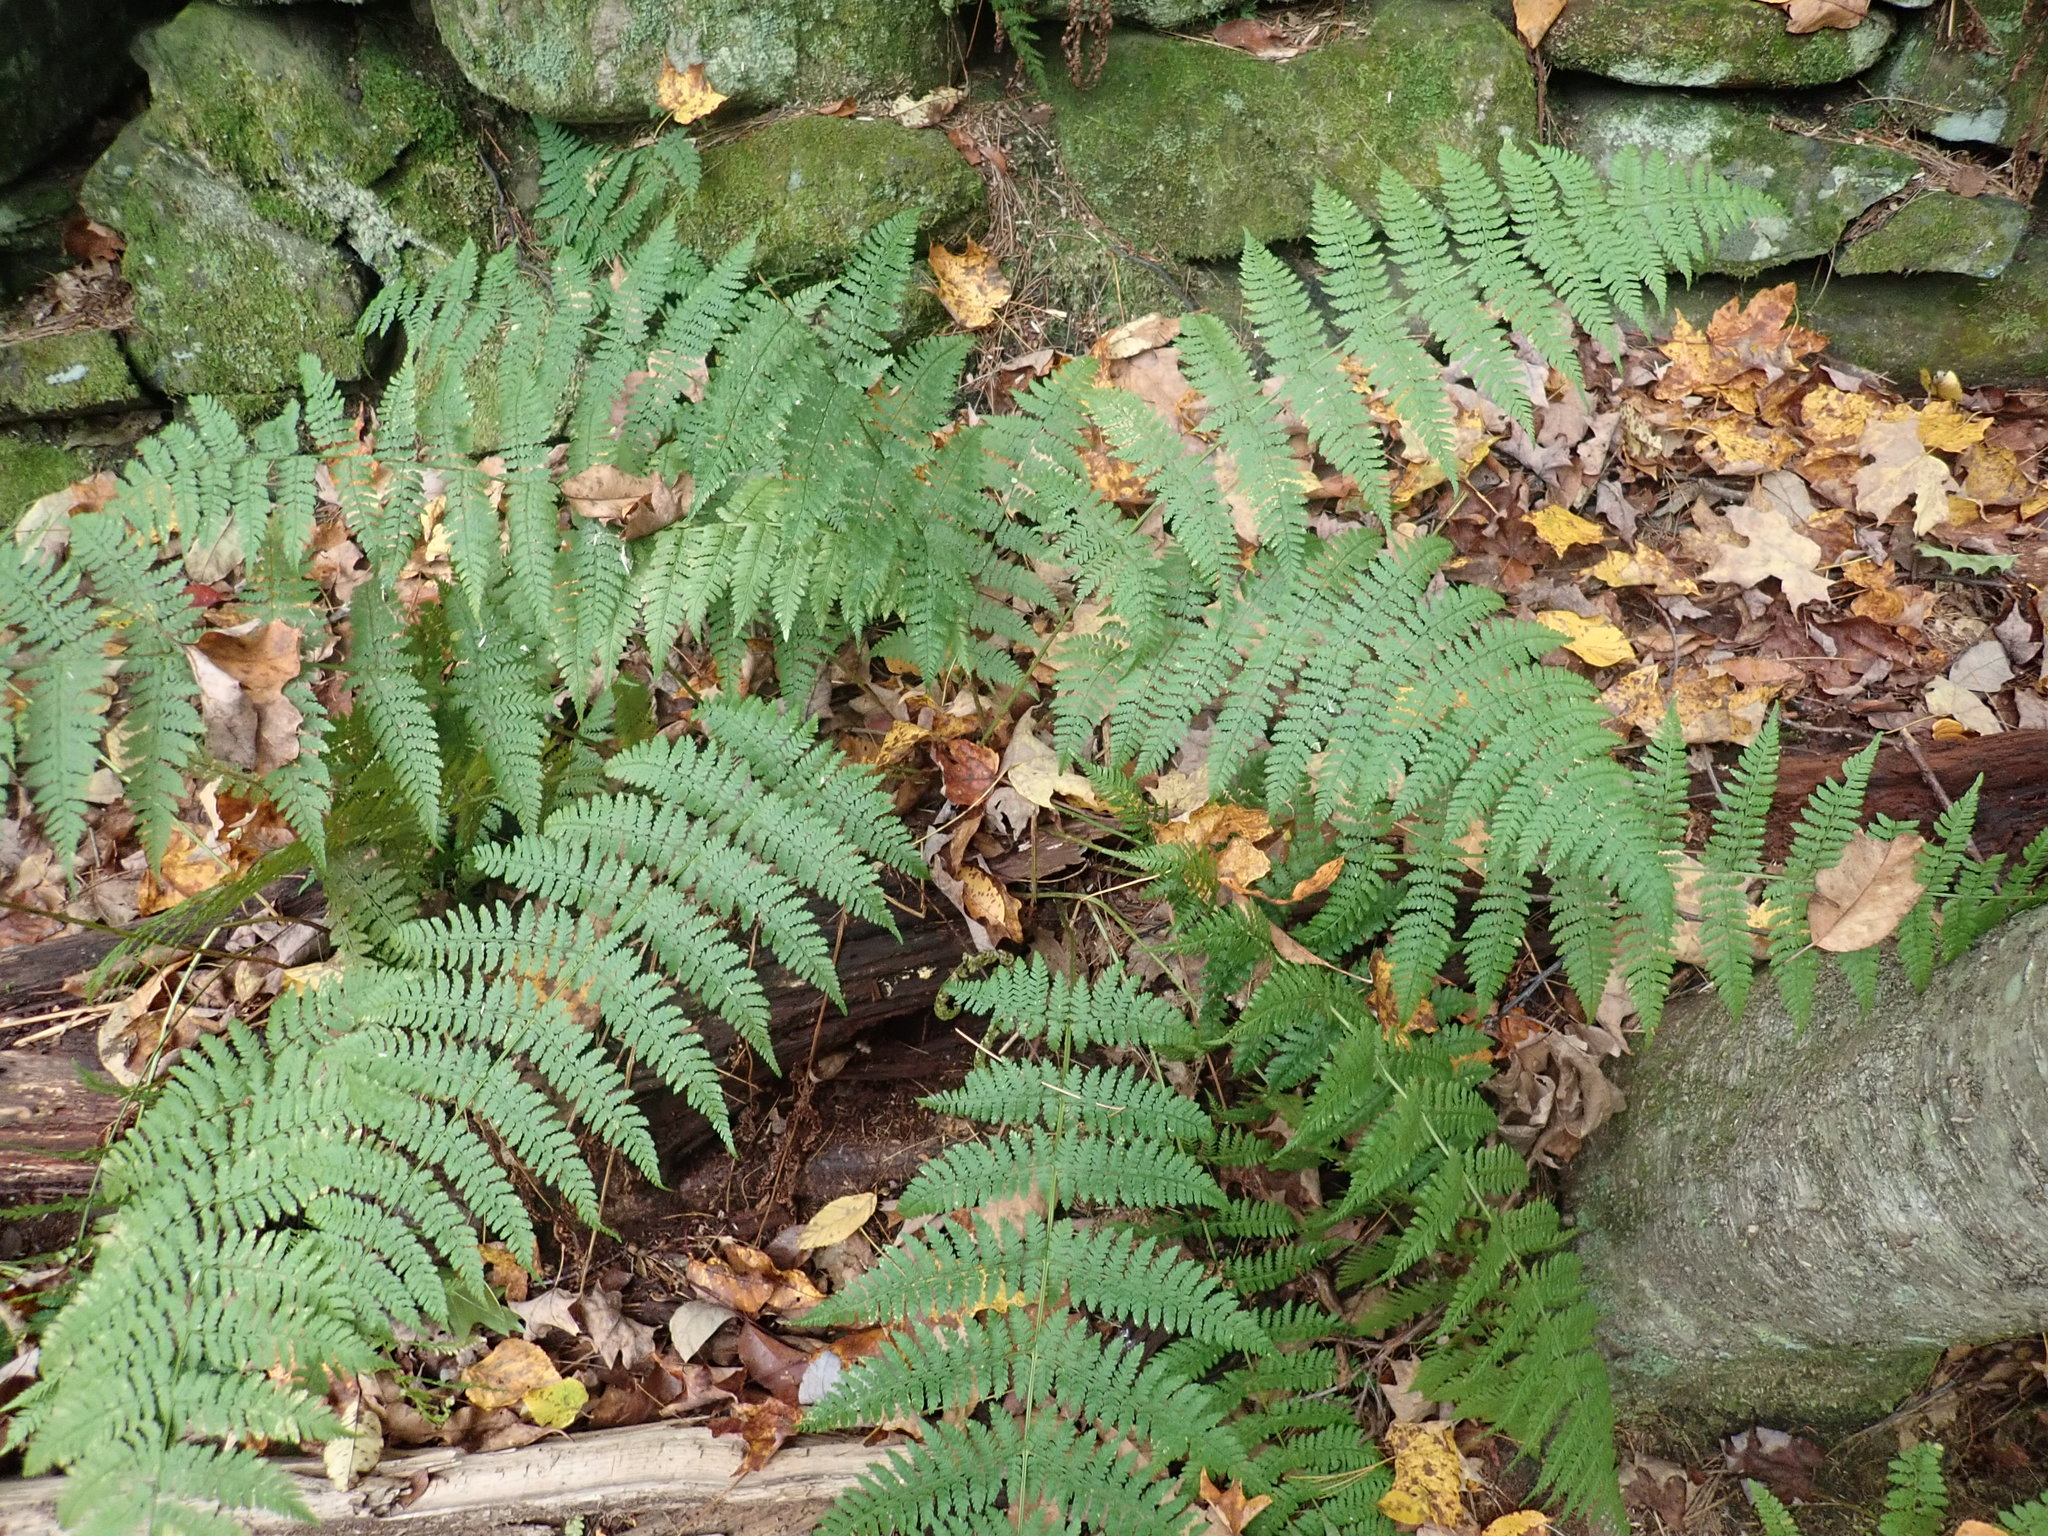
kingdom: Plantae
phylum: Tracheophyta
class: Polypodiopsida
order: Polypodiales
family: Dryopteridaceae
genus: Dryopteris
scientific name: Dryopteris intermedia
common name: Evergreen wood fern
